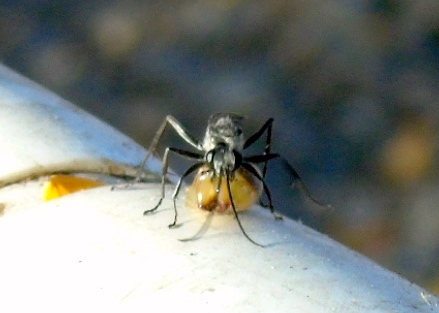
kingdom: Animalia
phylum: Arthropoda
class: Insecta
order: Hymenoptera
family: Pompilidae
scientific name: Pompilidae
